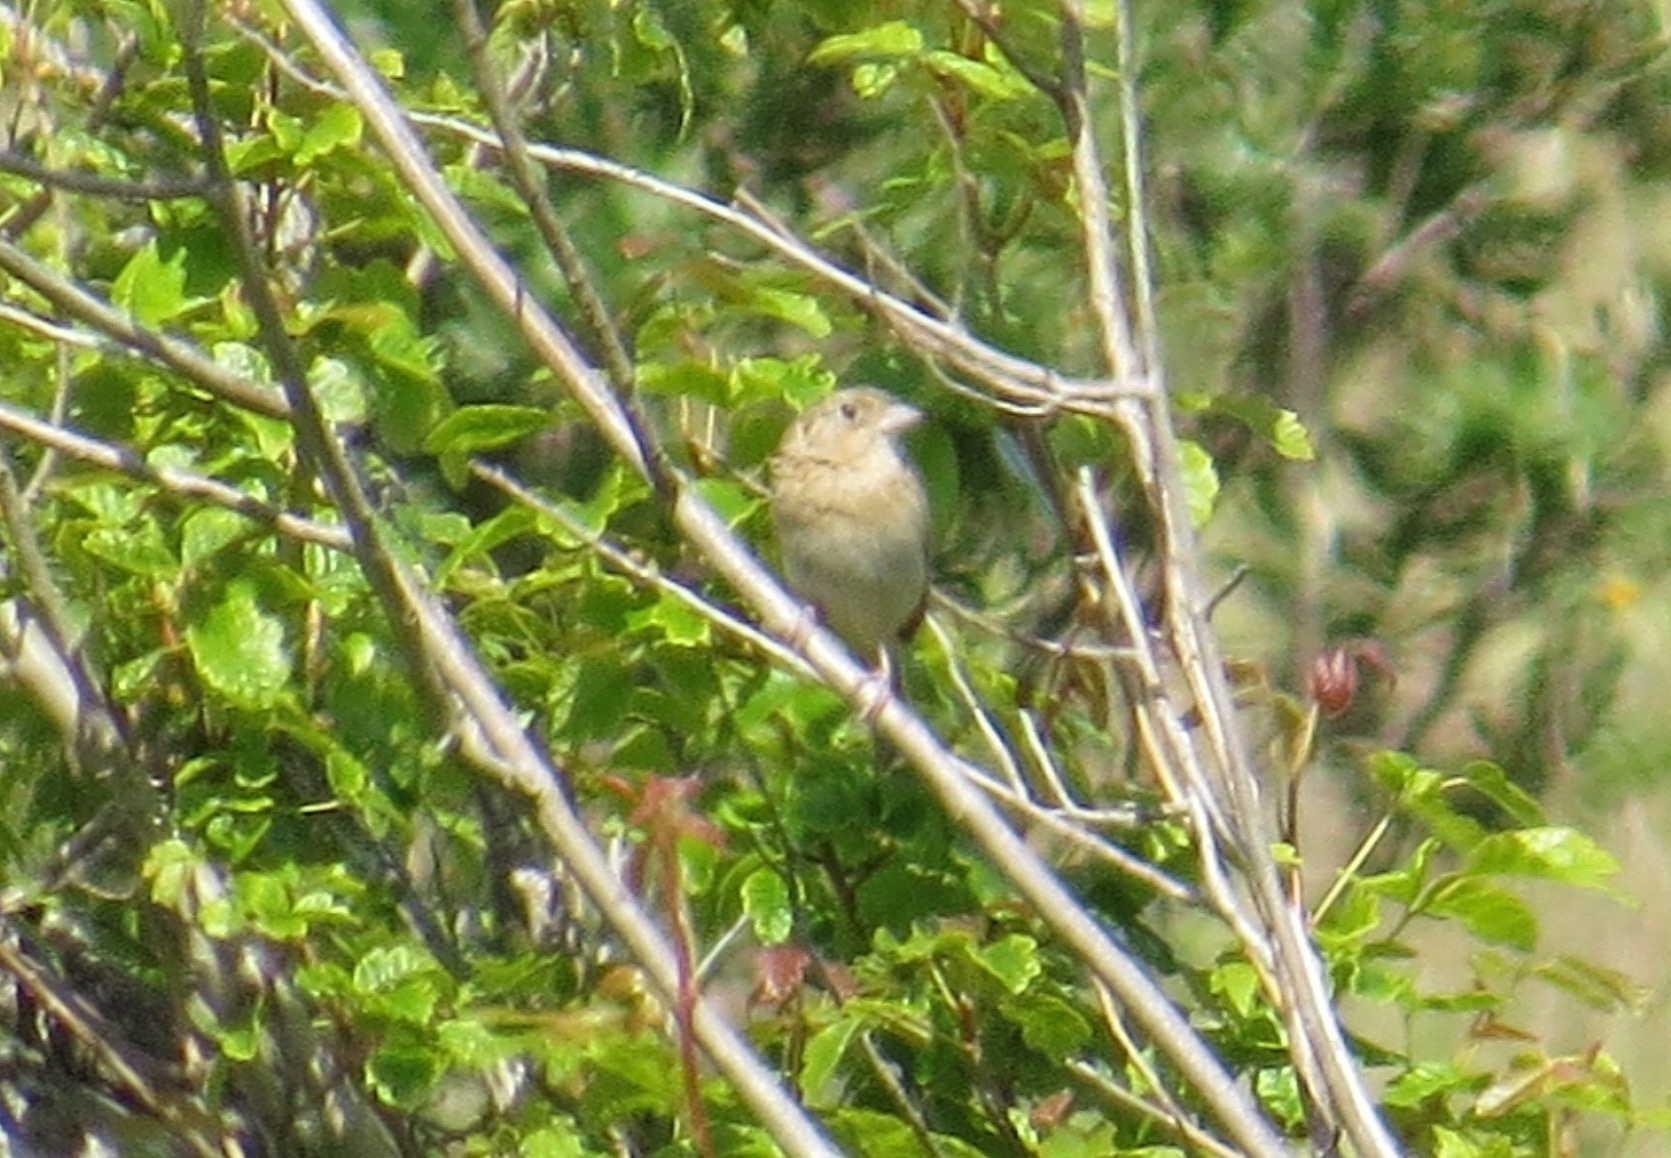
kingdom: Animalia
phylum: Chordata
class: Aves
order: Passeriformes
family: Passerellidae
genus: Ammodramus
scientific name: Ammodramus savannarum
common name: Grasshopper sparrow
